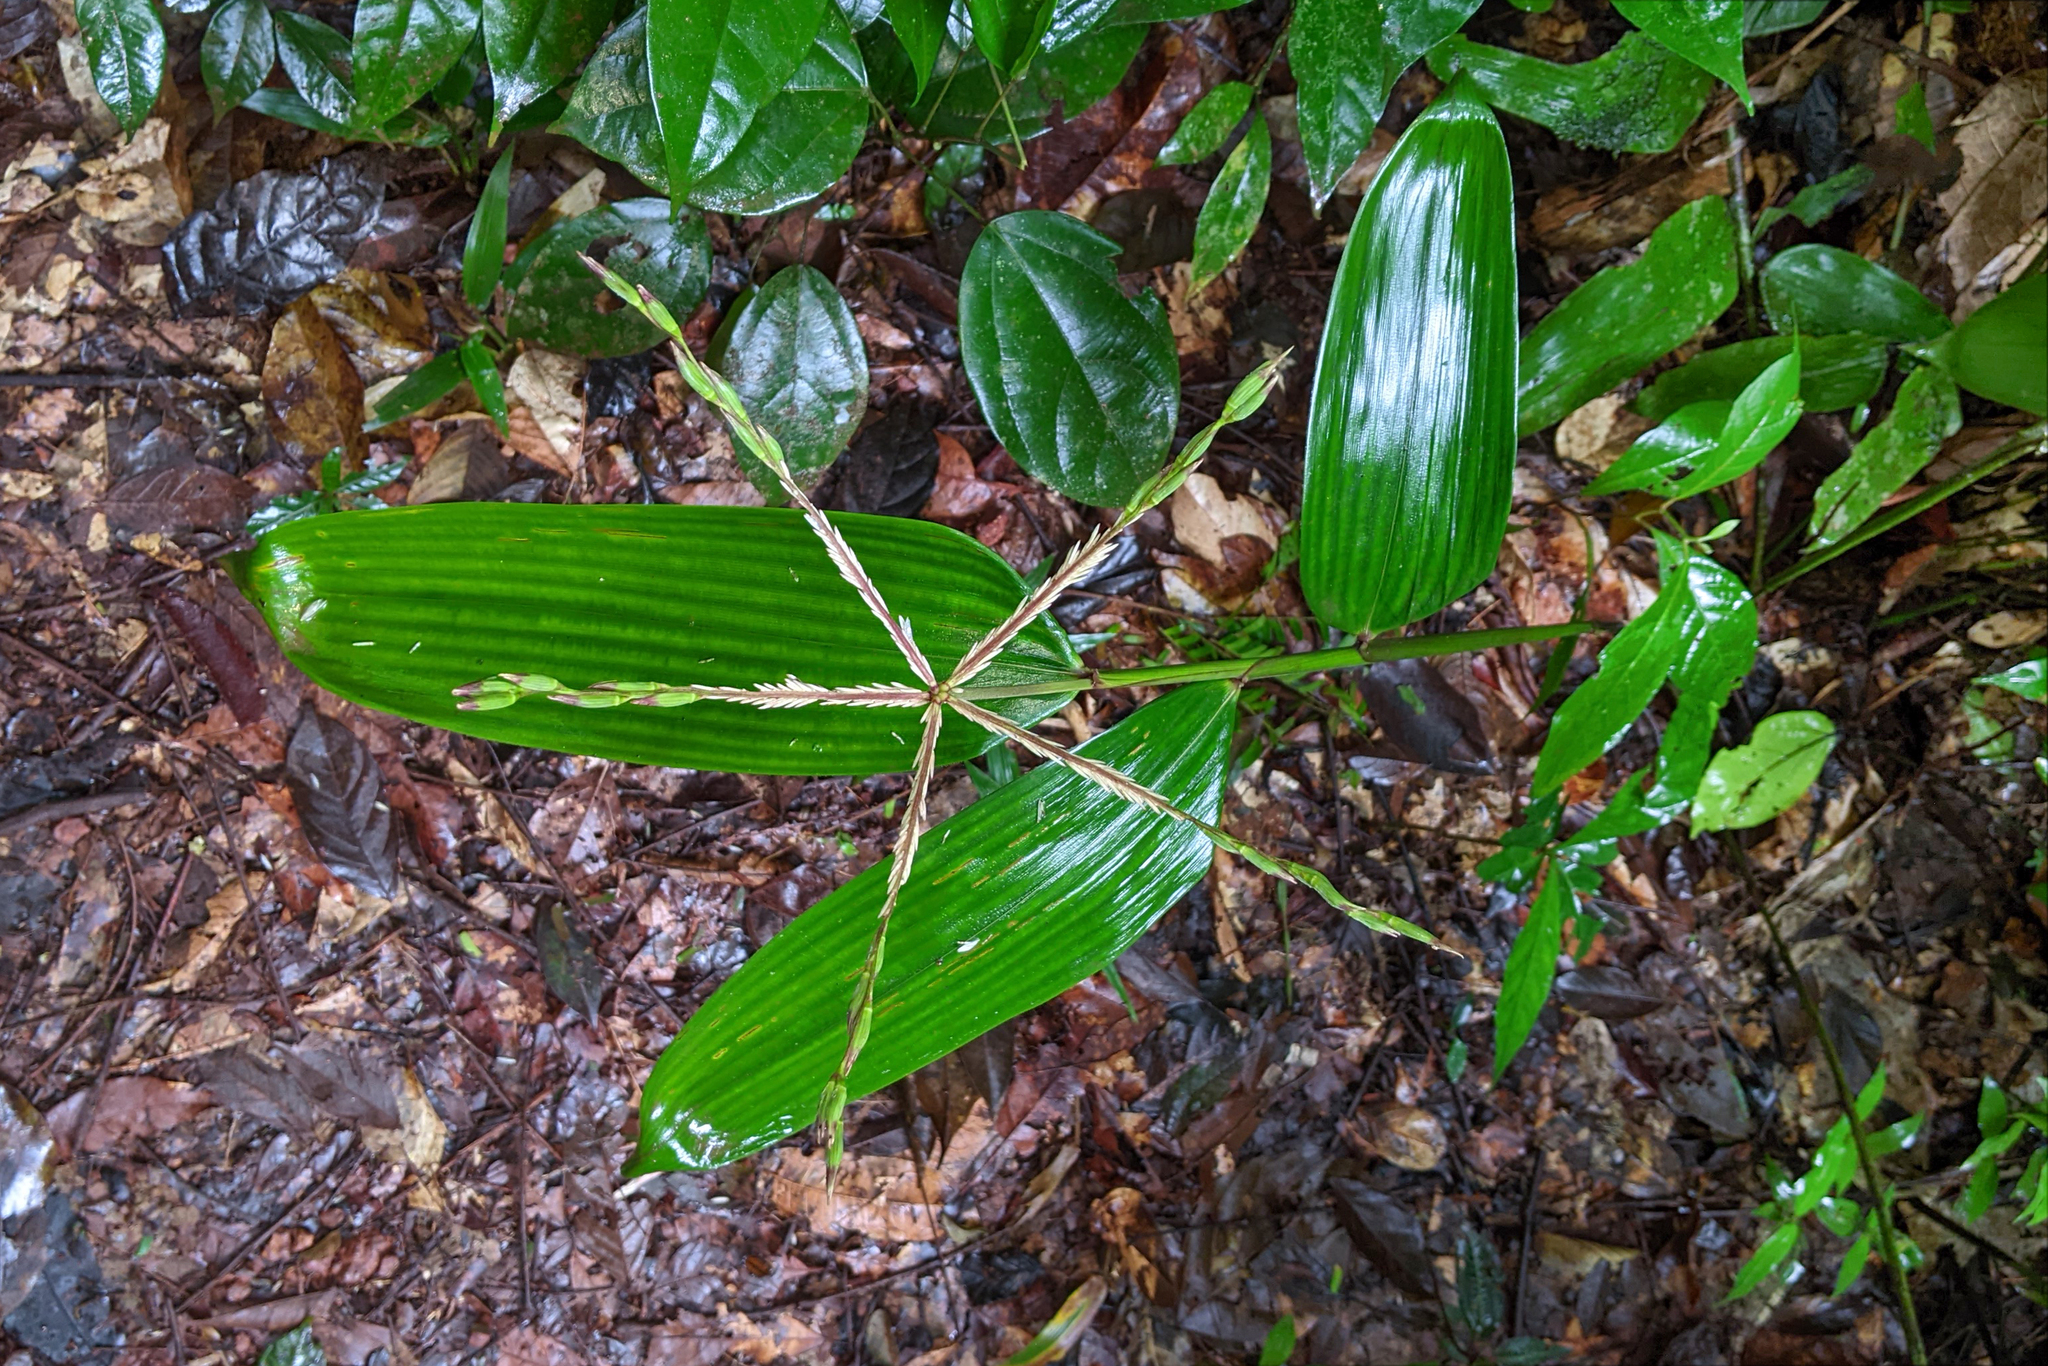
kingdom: Plantae
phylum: Tracheophyta
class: Liliopsida
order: Poales
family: Poaceae
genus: Olyra
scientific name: Olyra obliquifolia
